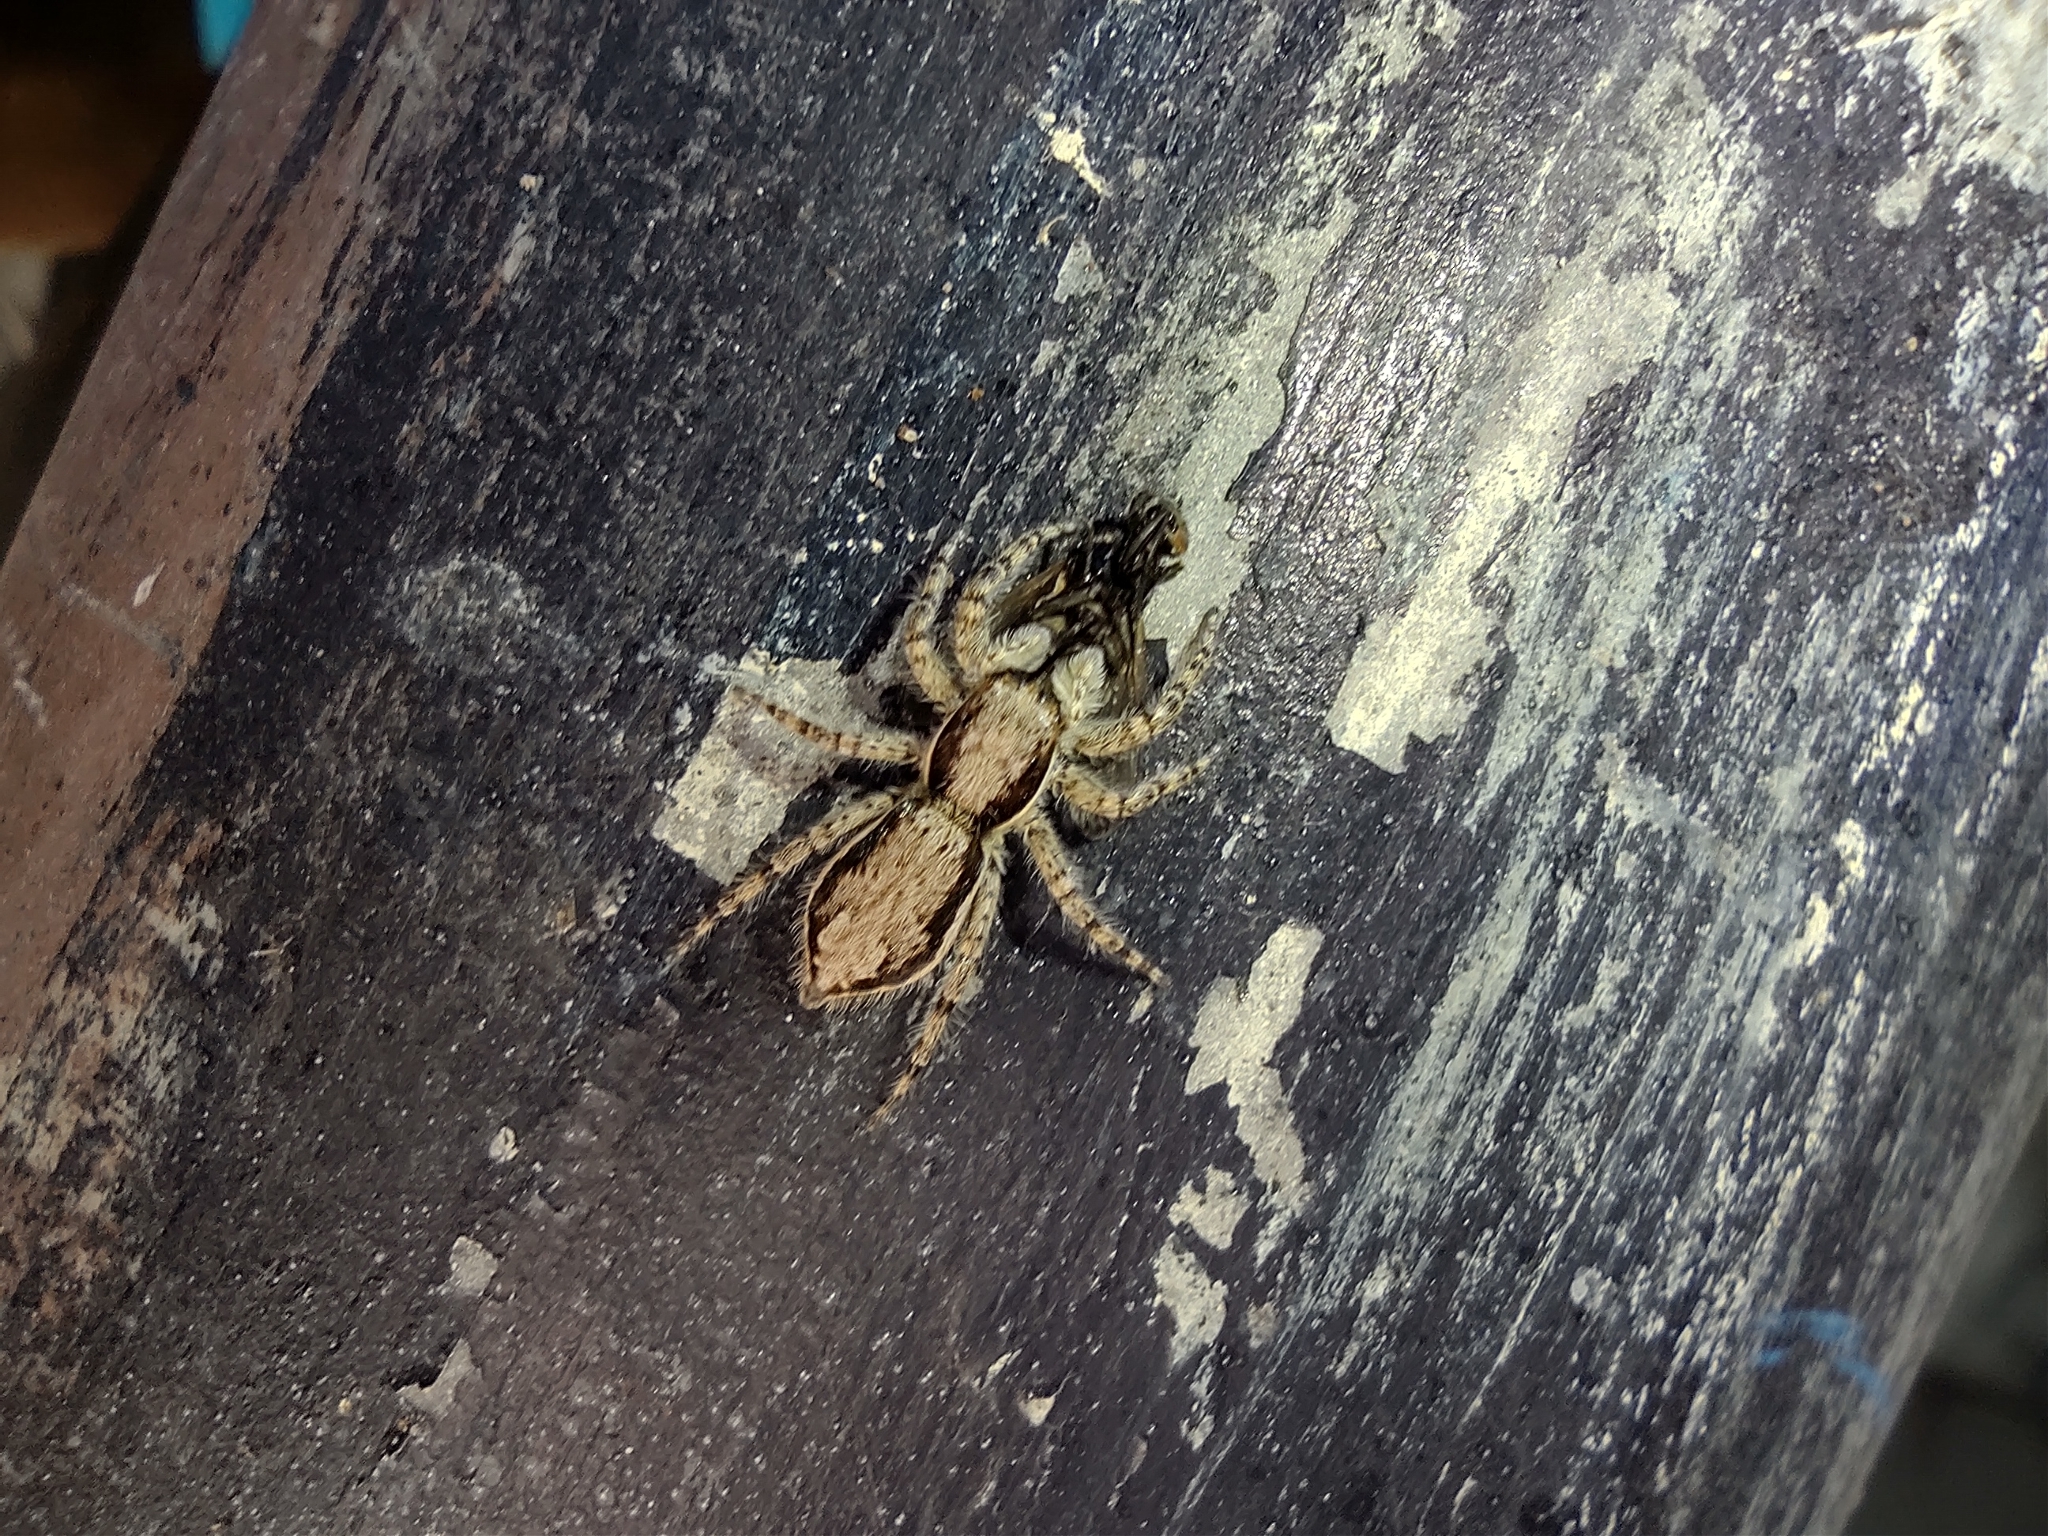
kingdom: Animalia
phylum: Arthropoda
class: Arachnida
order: Araneae
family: Salticidae
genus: Menemerus
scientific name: Menemerus bivittatus
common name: Gray wall jumper
